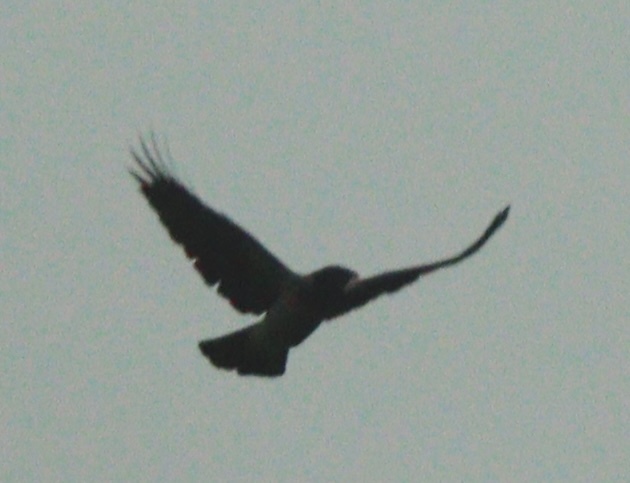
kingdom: Animalia
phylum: Chordata
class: Aves
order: Passeriformes
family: Corvidae
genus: Corvus
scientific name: Corvus cornix
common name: Hooded crow
